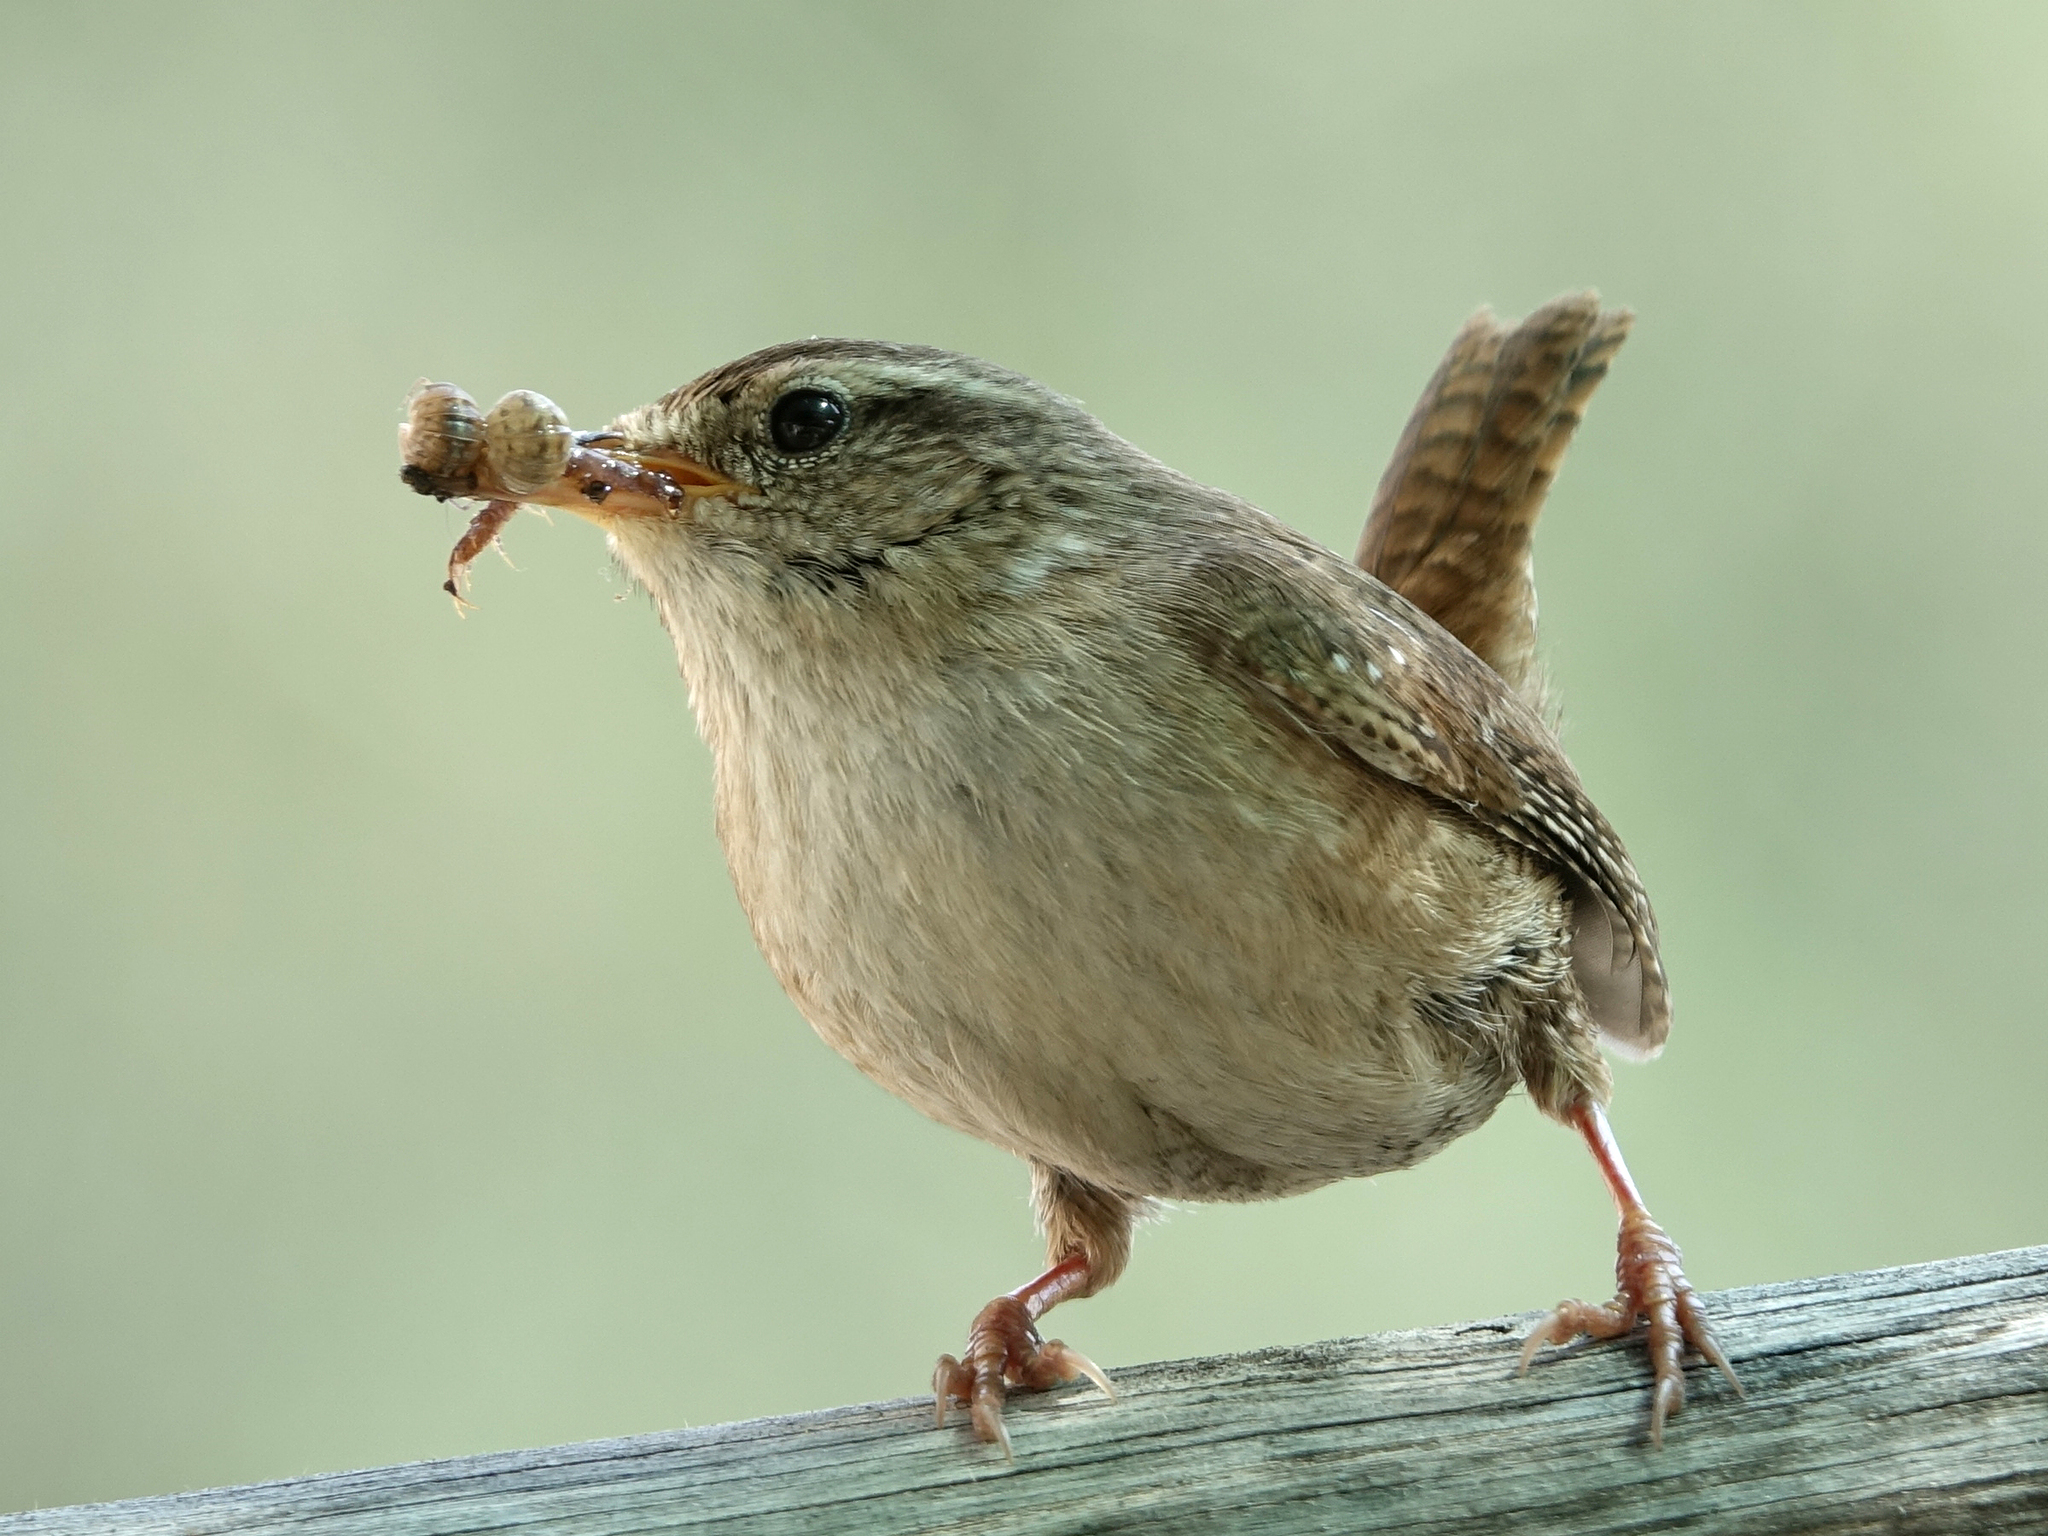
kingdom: Animalia
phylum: Chordata
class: Aves
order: Passeriformes
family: Troglodytidae
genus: Troglodytes
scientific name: Troglodytes troglodytes
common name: Eurasian wren
